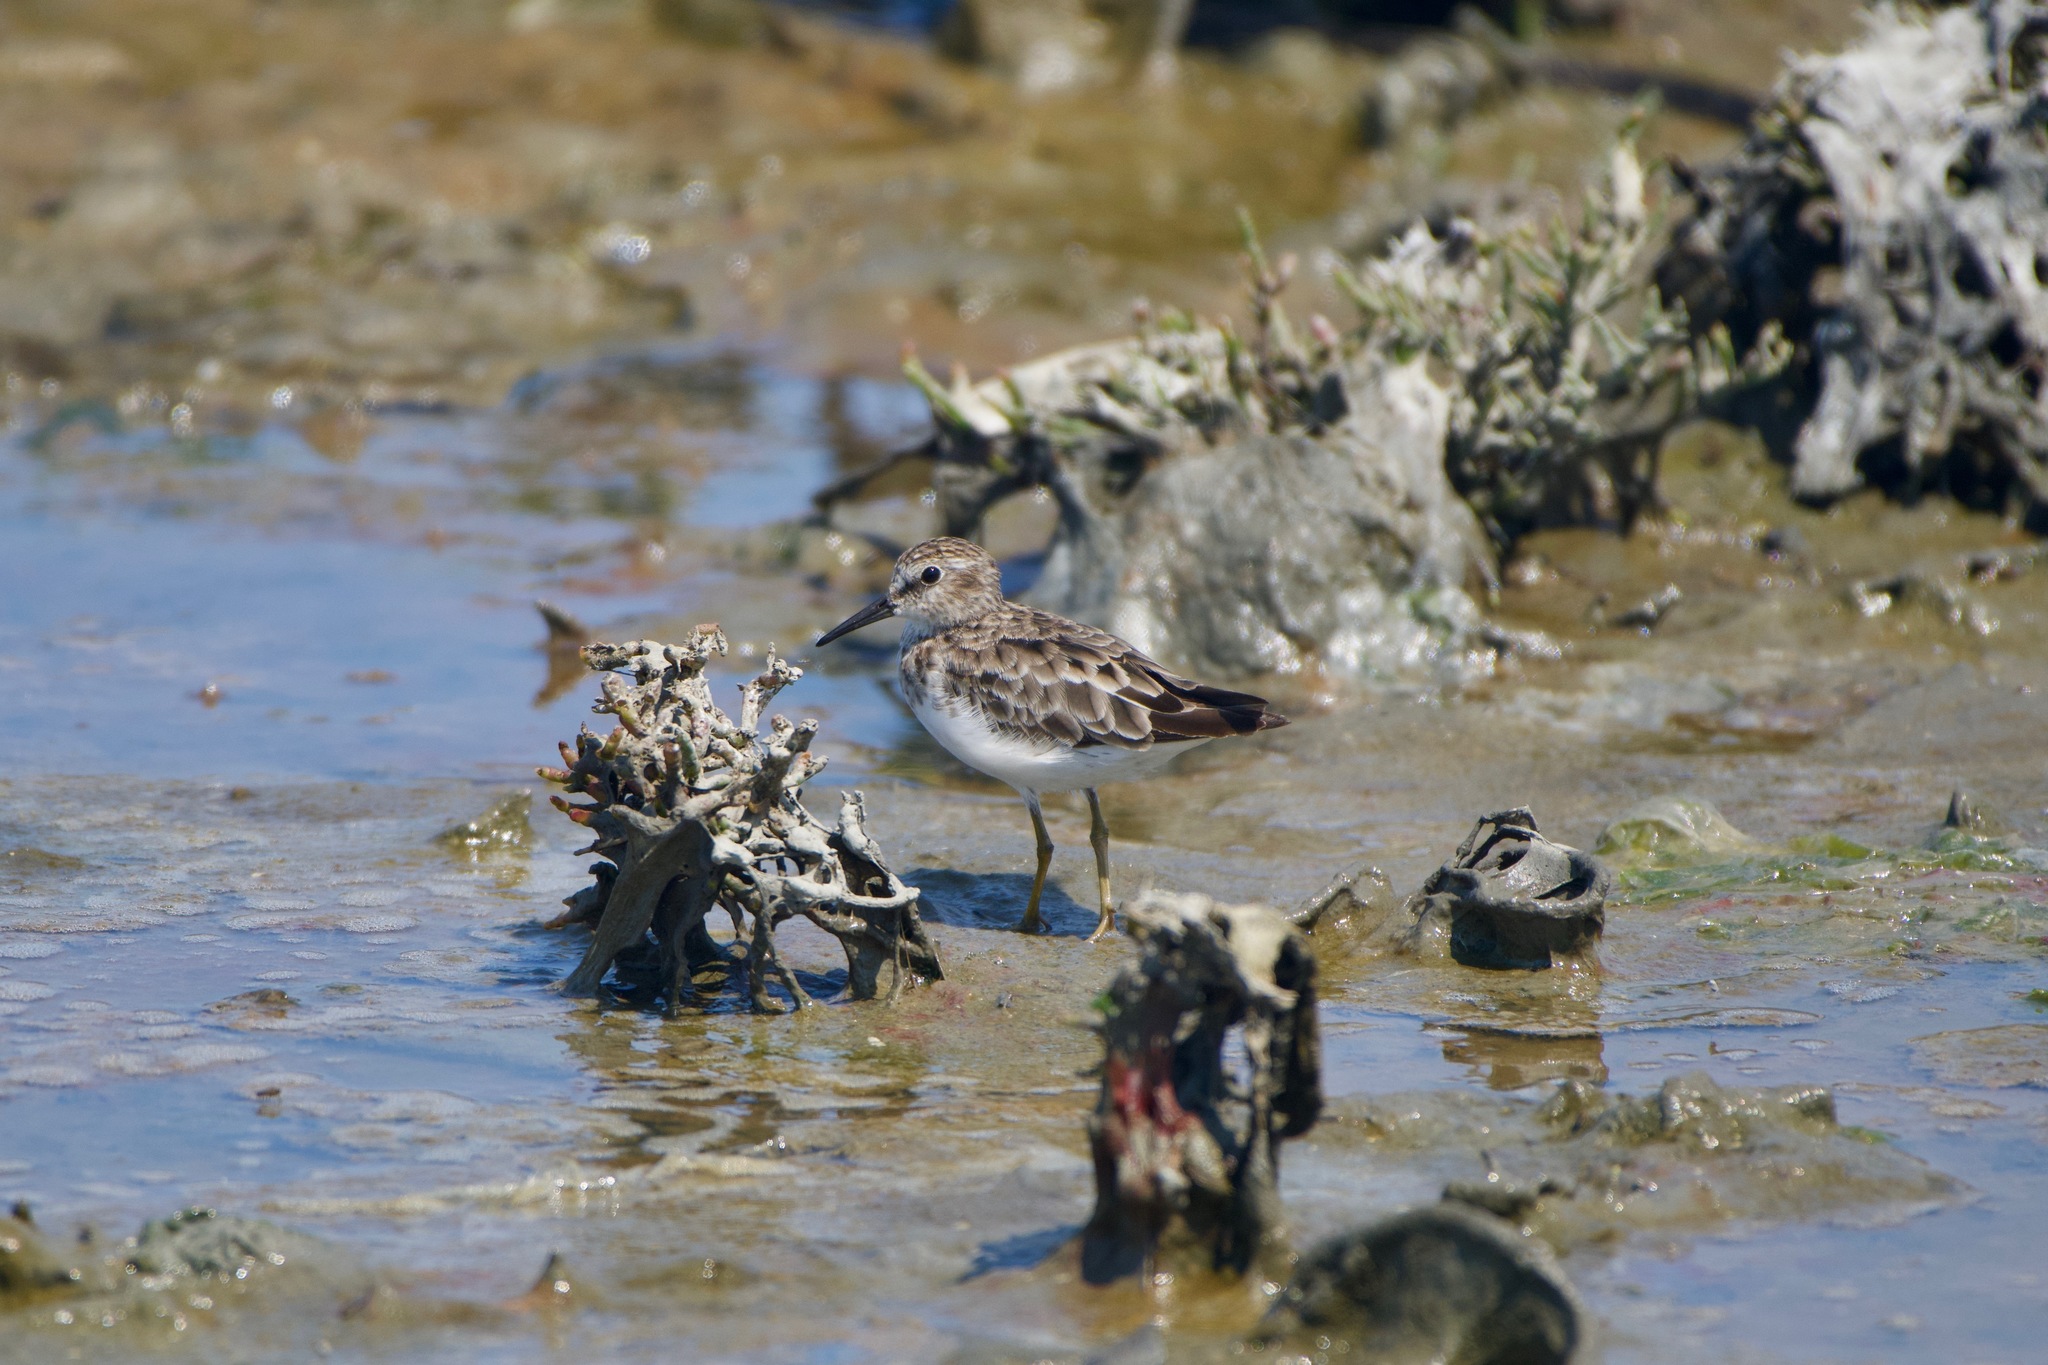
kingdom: Animalia
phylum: Chordata
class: Aves
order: Charadriiformes
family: Scolopacidae
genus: Calidris
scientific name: Calidris minutilla
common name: Least sandpiper
